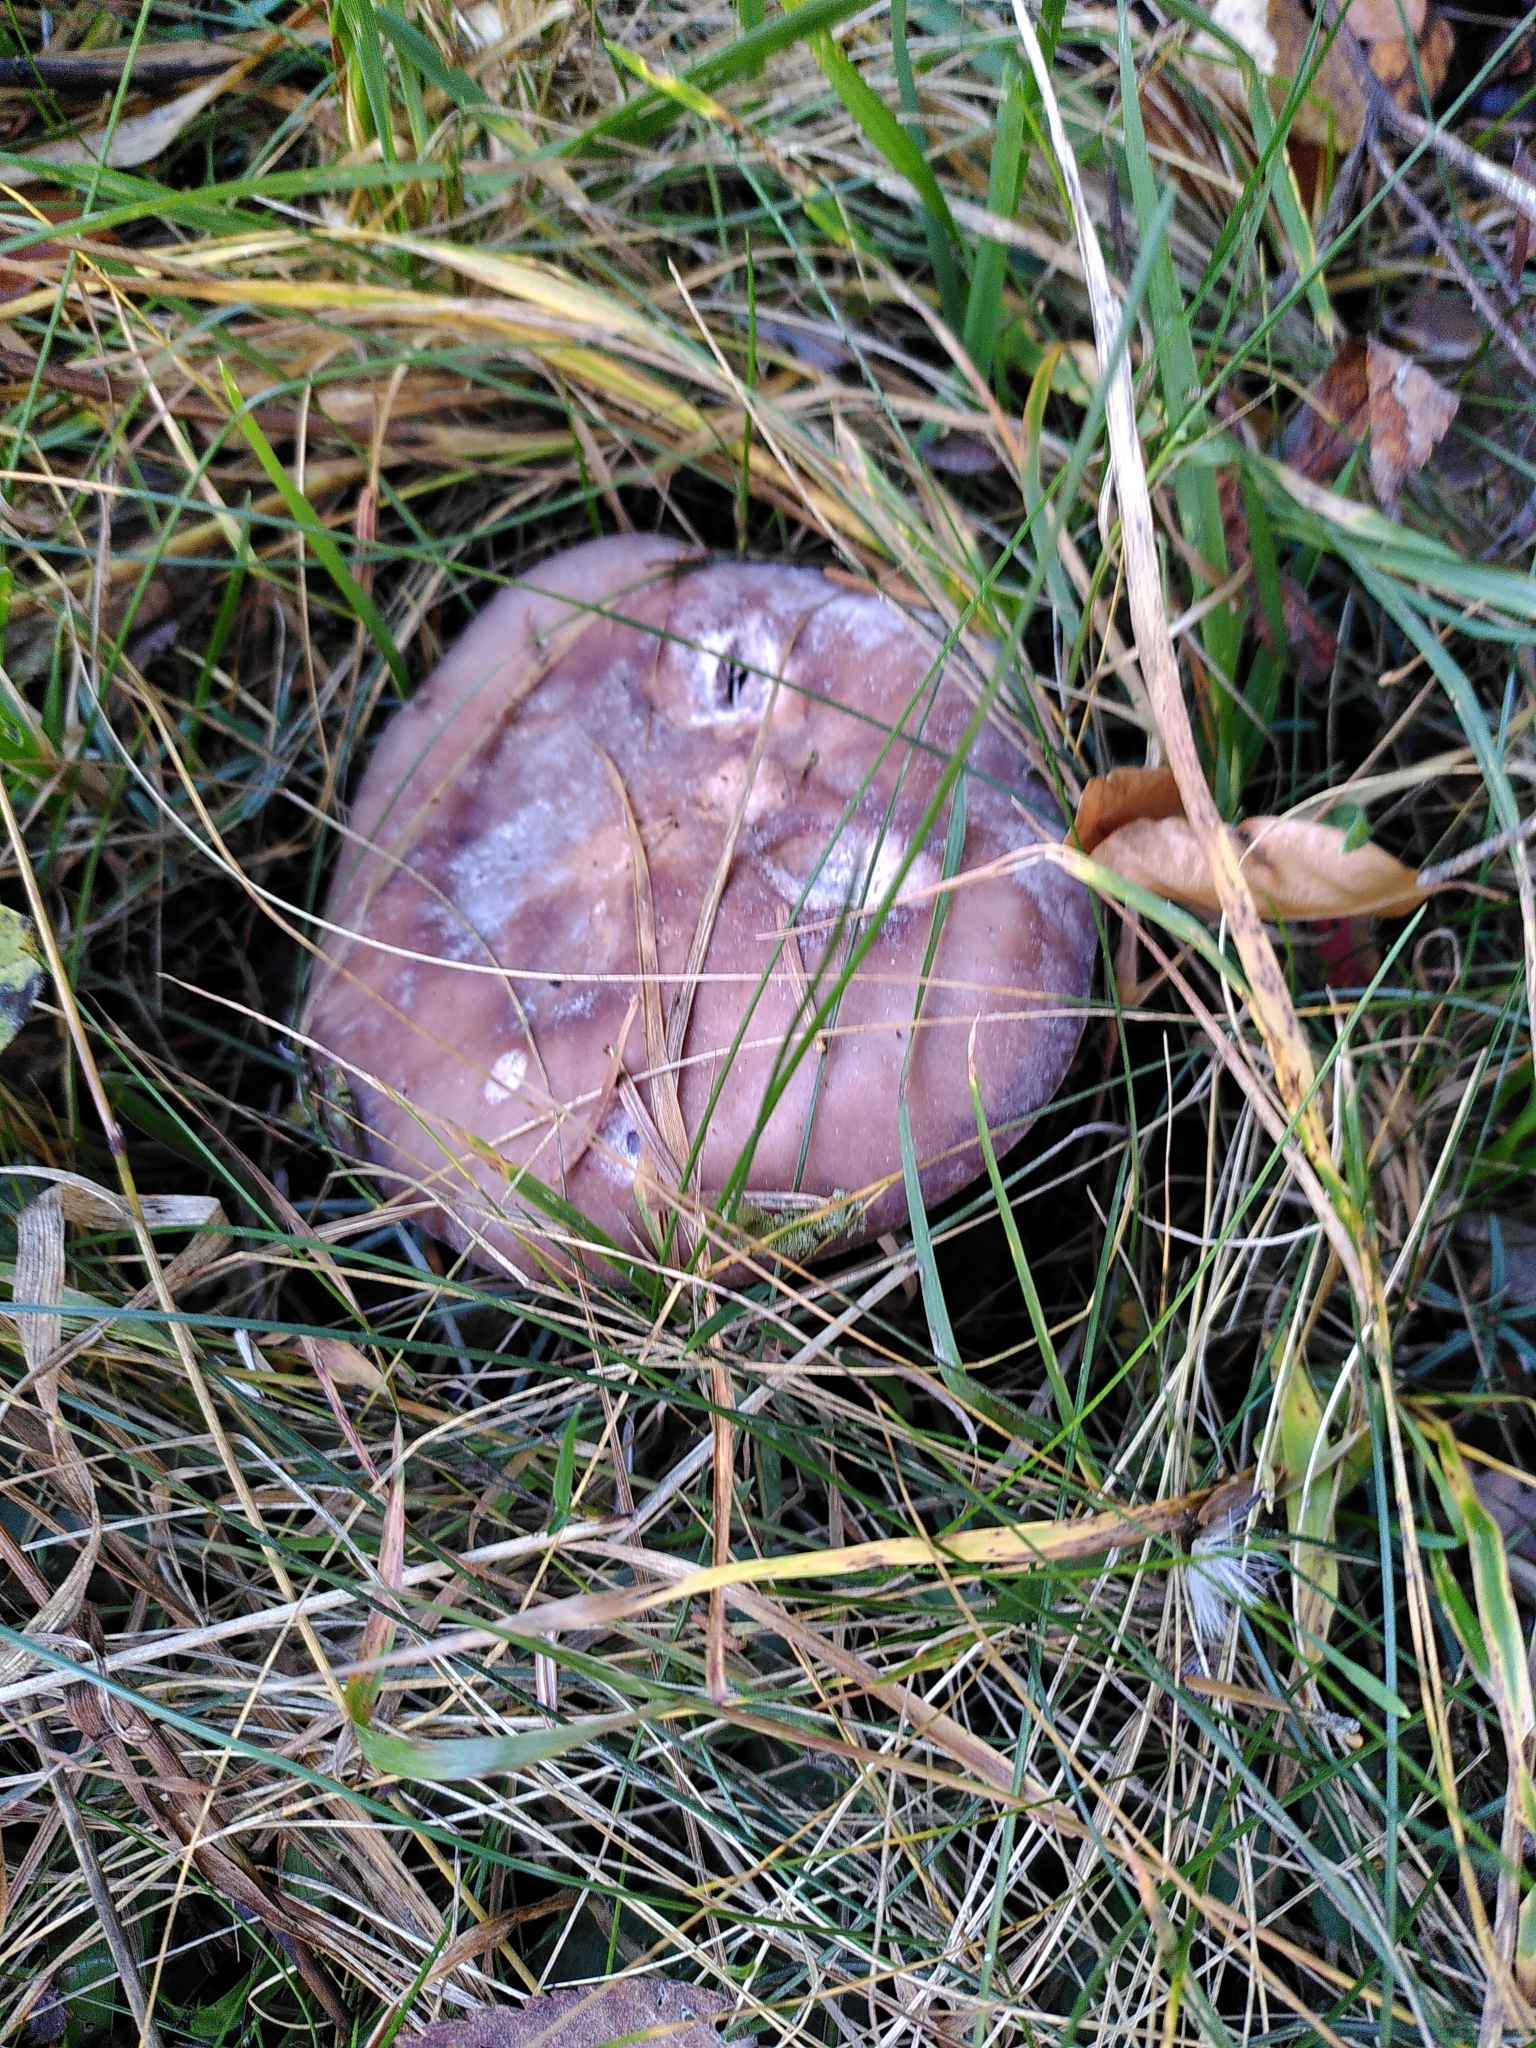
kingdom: Fungi
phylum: Basidiomycota
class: Agaricomycetes
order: Agaricales
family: Tricholomataceae
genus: Collybia
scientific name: Collybia
